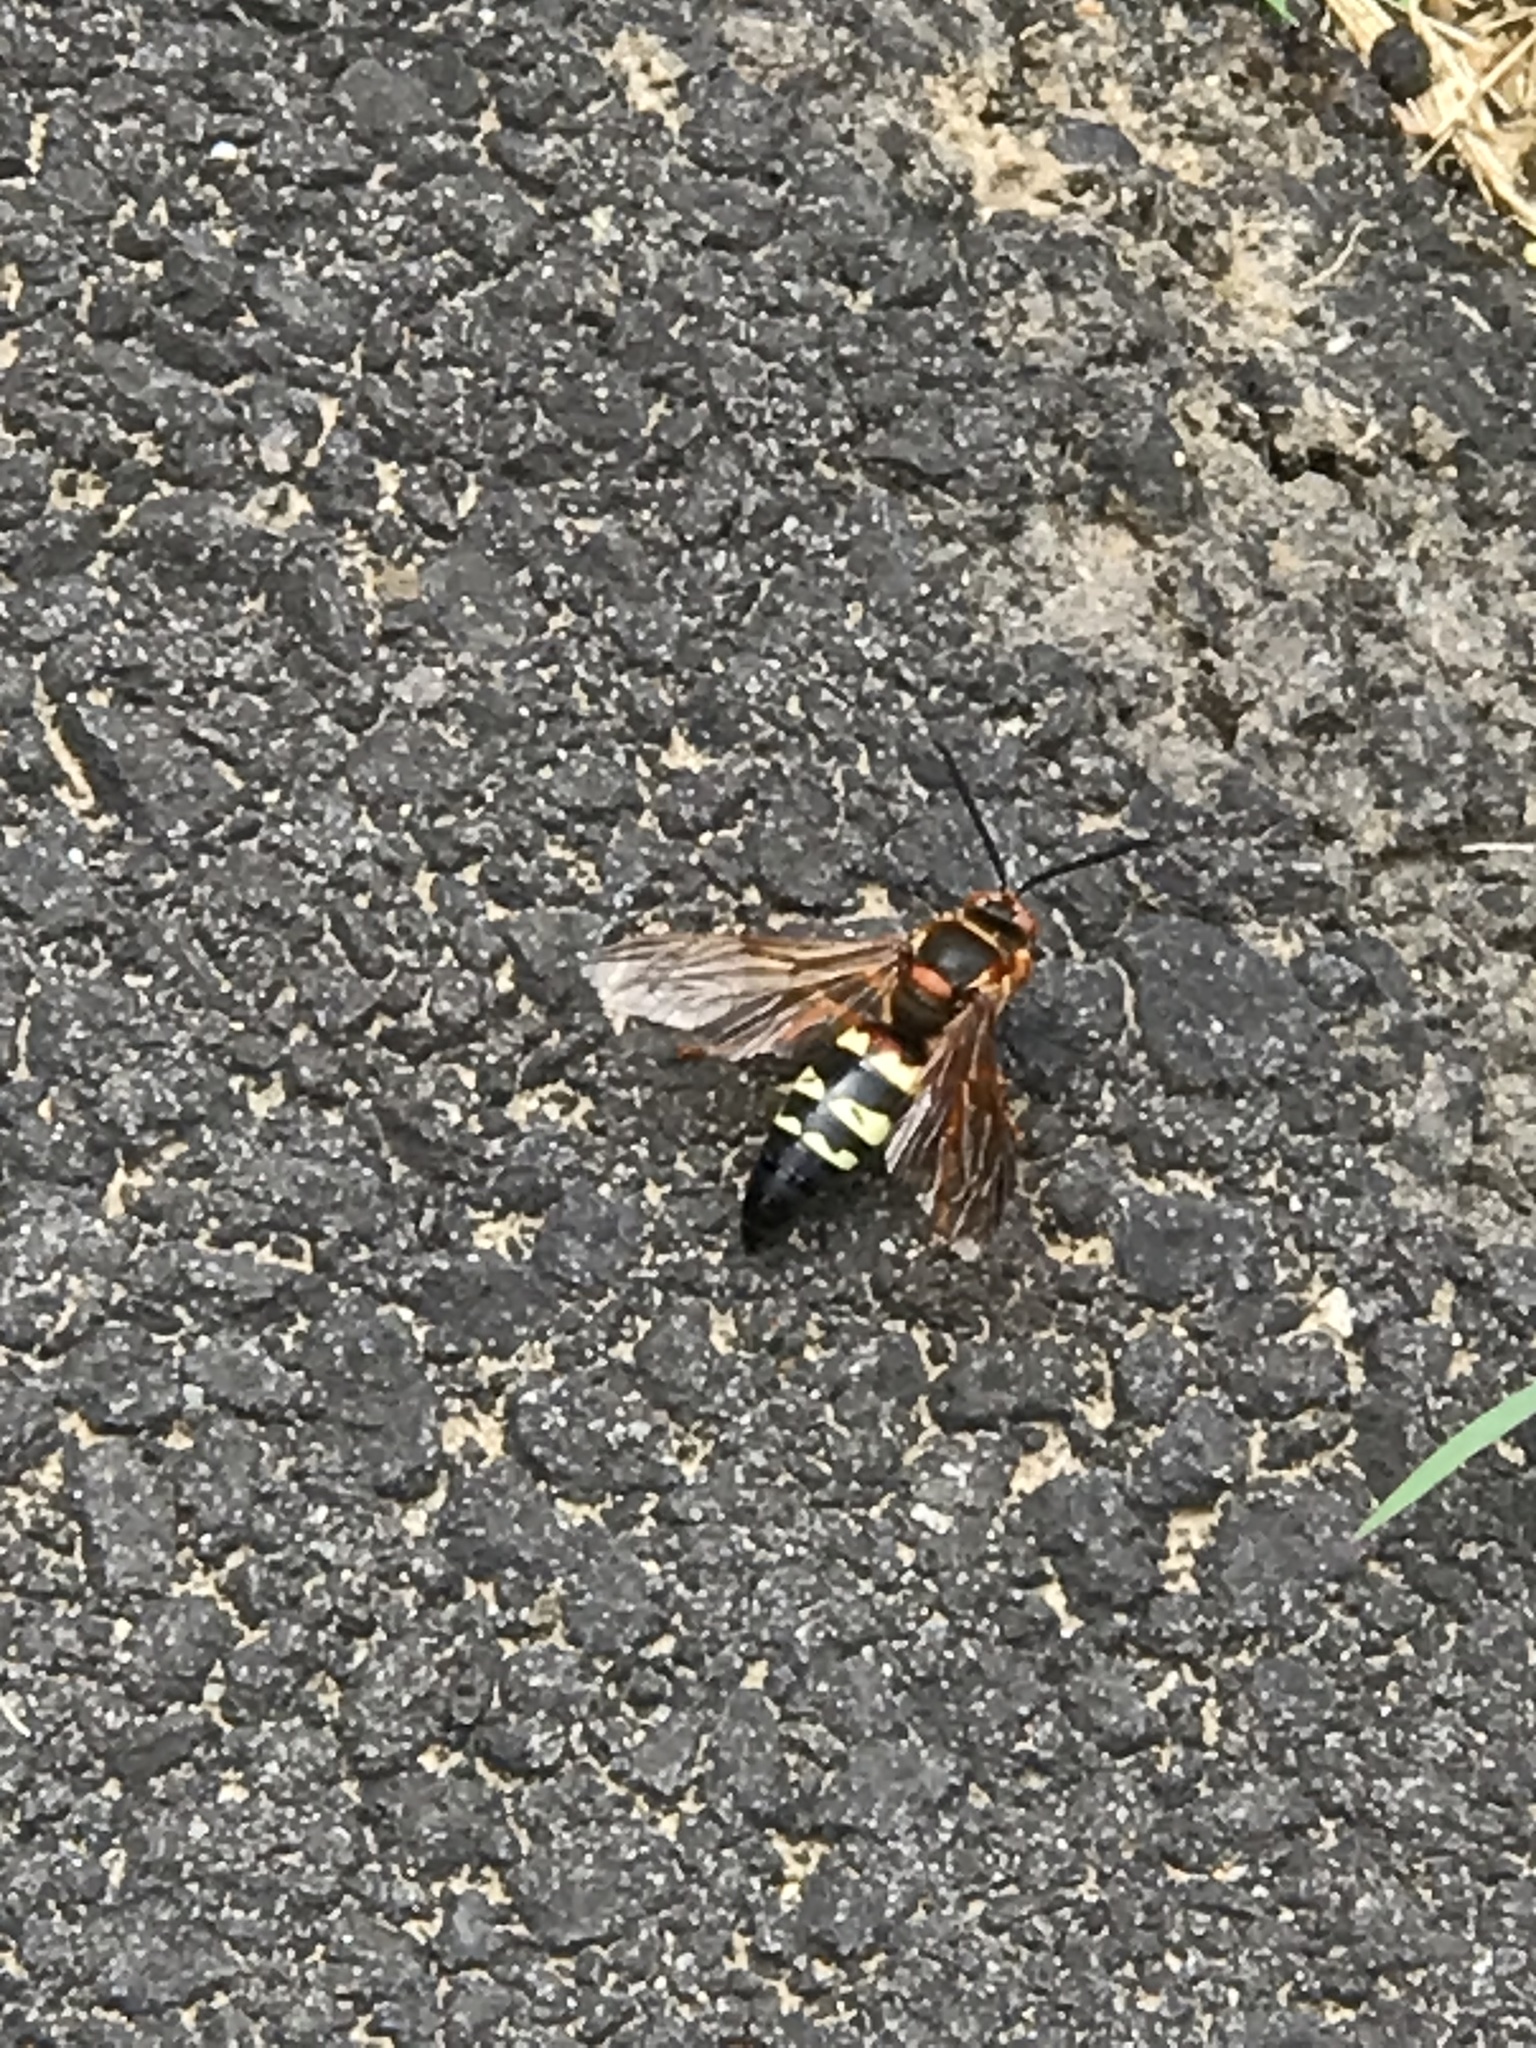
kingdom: Animalia
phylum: Arthropoda
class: Insecta
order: Hymenoptera
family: Crabronidae
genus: Sphecius
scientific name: Sphecius speciosus
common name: Cicada killer
